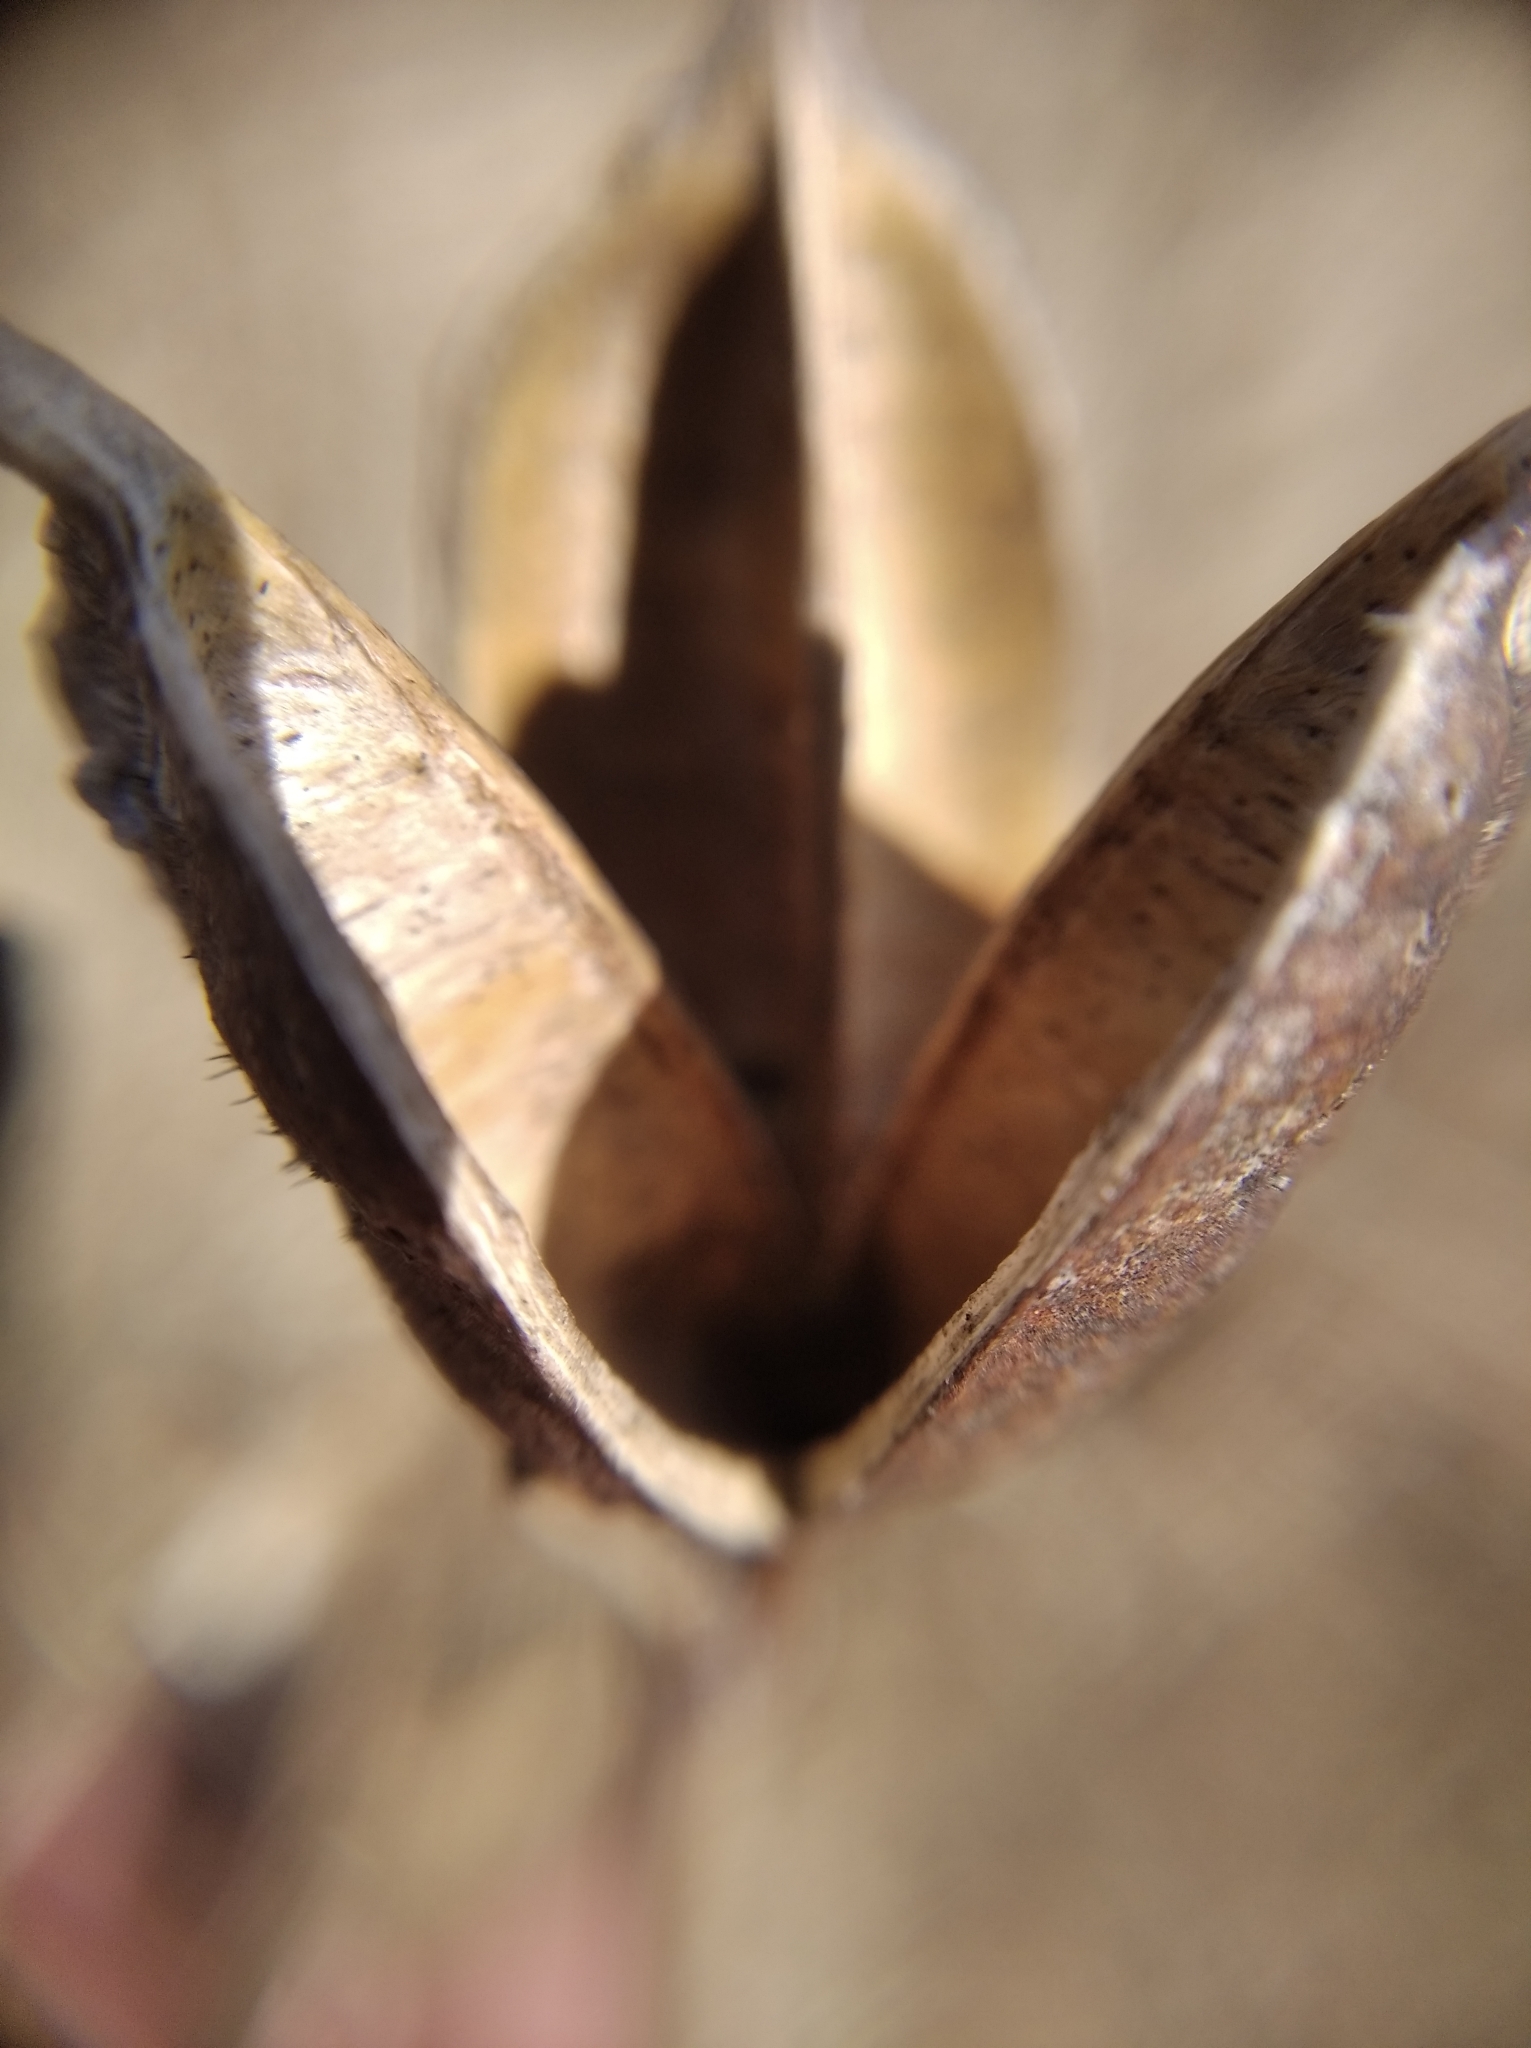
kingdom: Plantae
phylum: Tracheophyta
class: Liliopsida
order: Asparagales
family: Iridaceae
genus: Iris
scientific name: Iris sibirica
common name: Siberian iris
